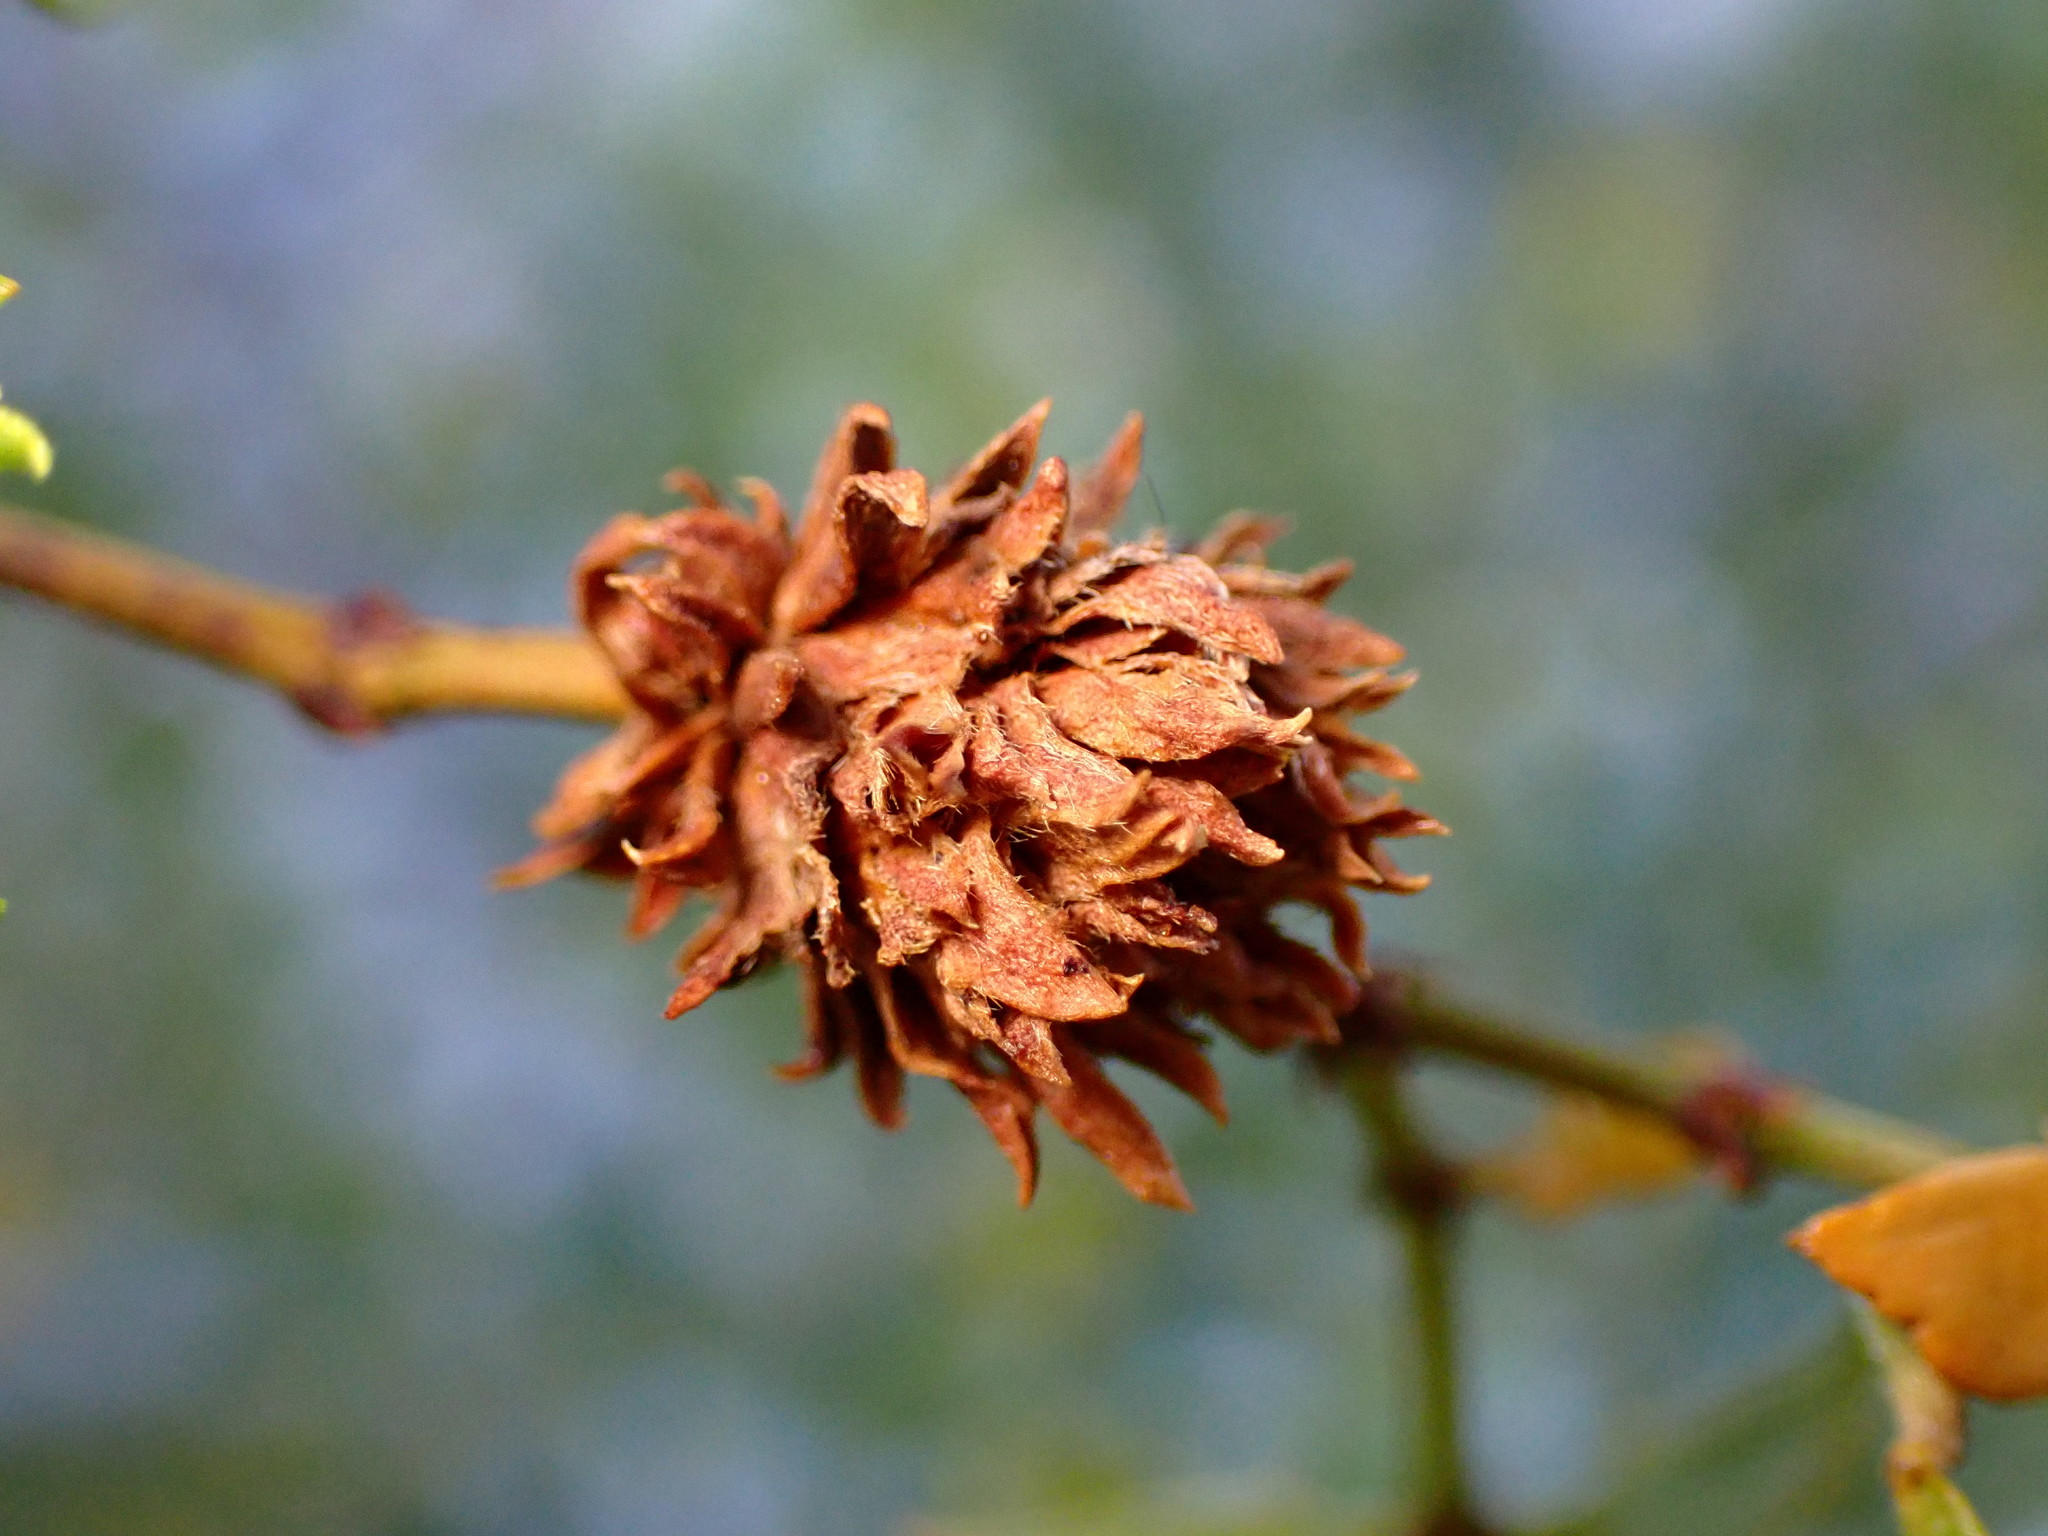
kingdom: Animalia
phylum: Arthropoda
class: Insecta
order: Diptera
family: Cecidomyiidae
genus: Asphondylia
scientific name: Asphondylia rosetta
